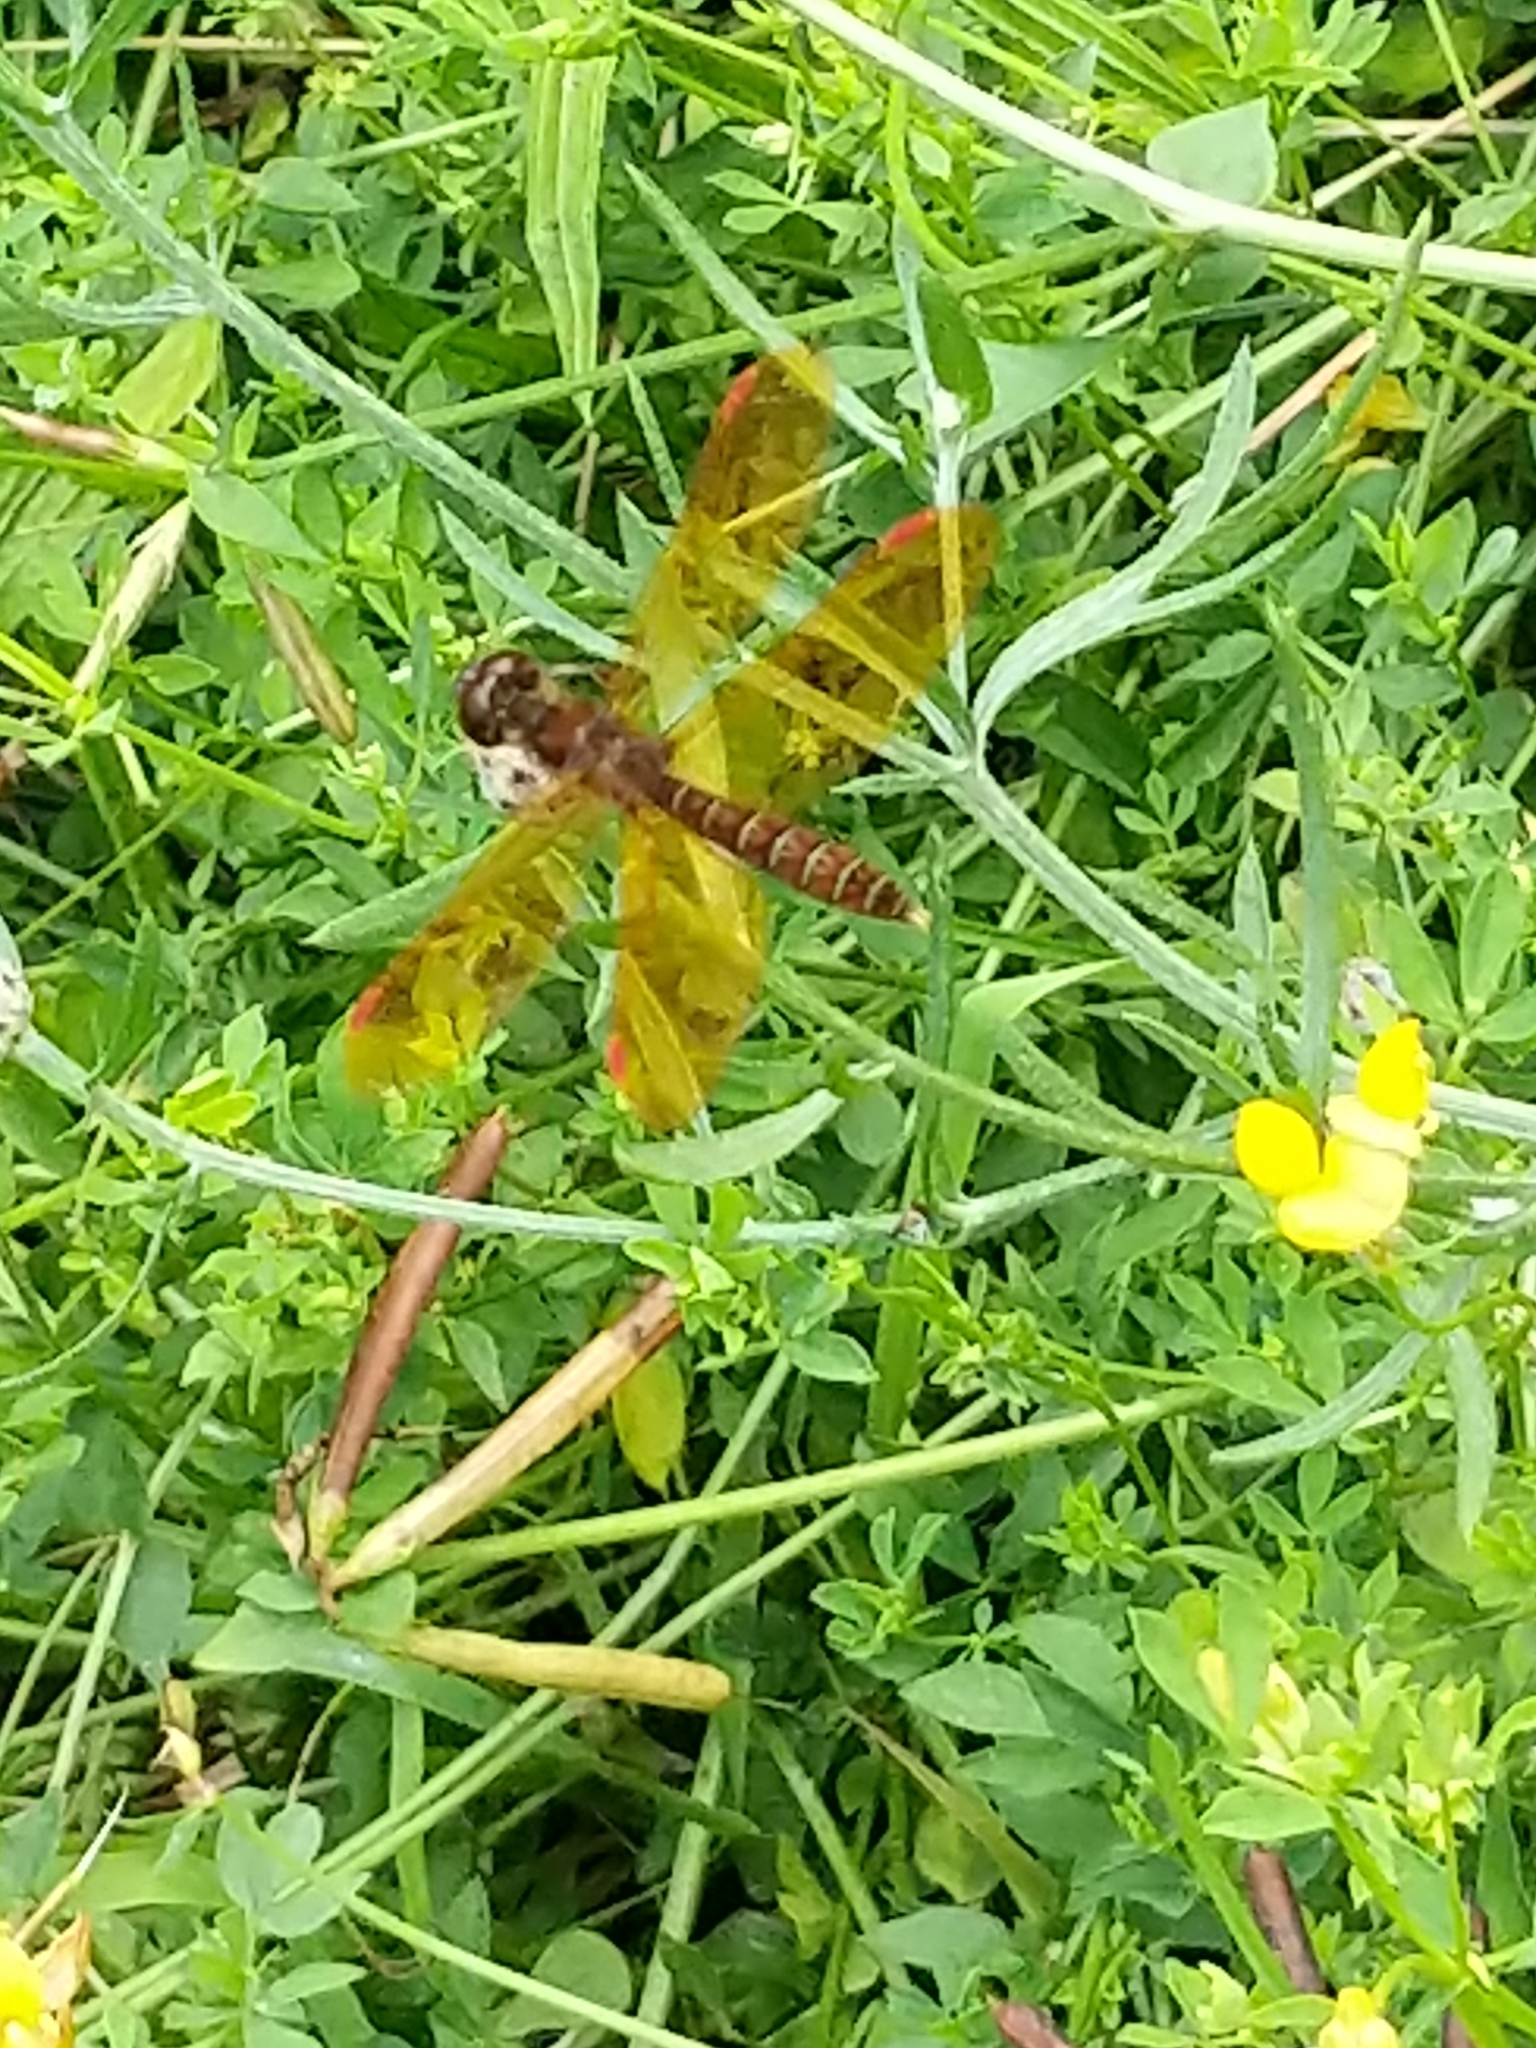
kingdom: Animalia
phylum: Arthropoda
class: Insecta
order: Odonata
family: Libellulidae
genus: Perithemis
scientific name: Perithemis tenera
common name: Eastern amberwing
